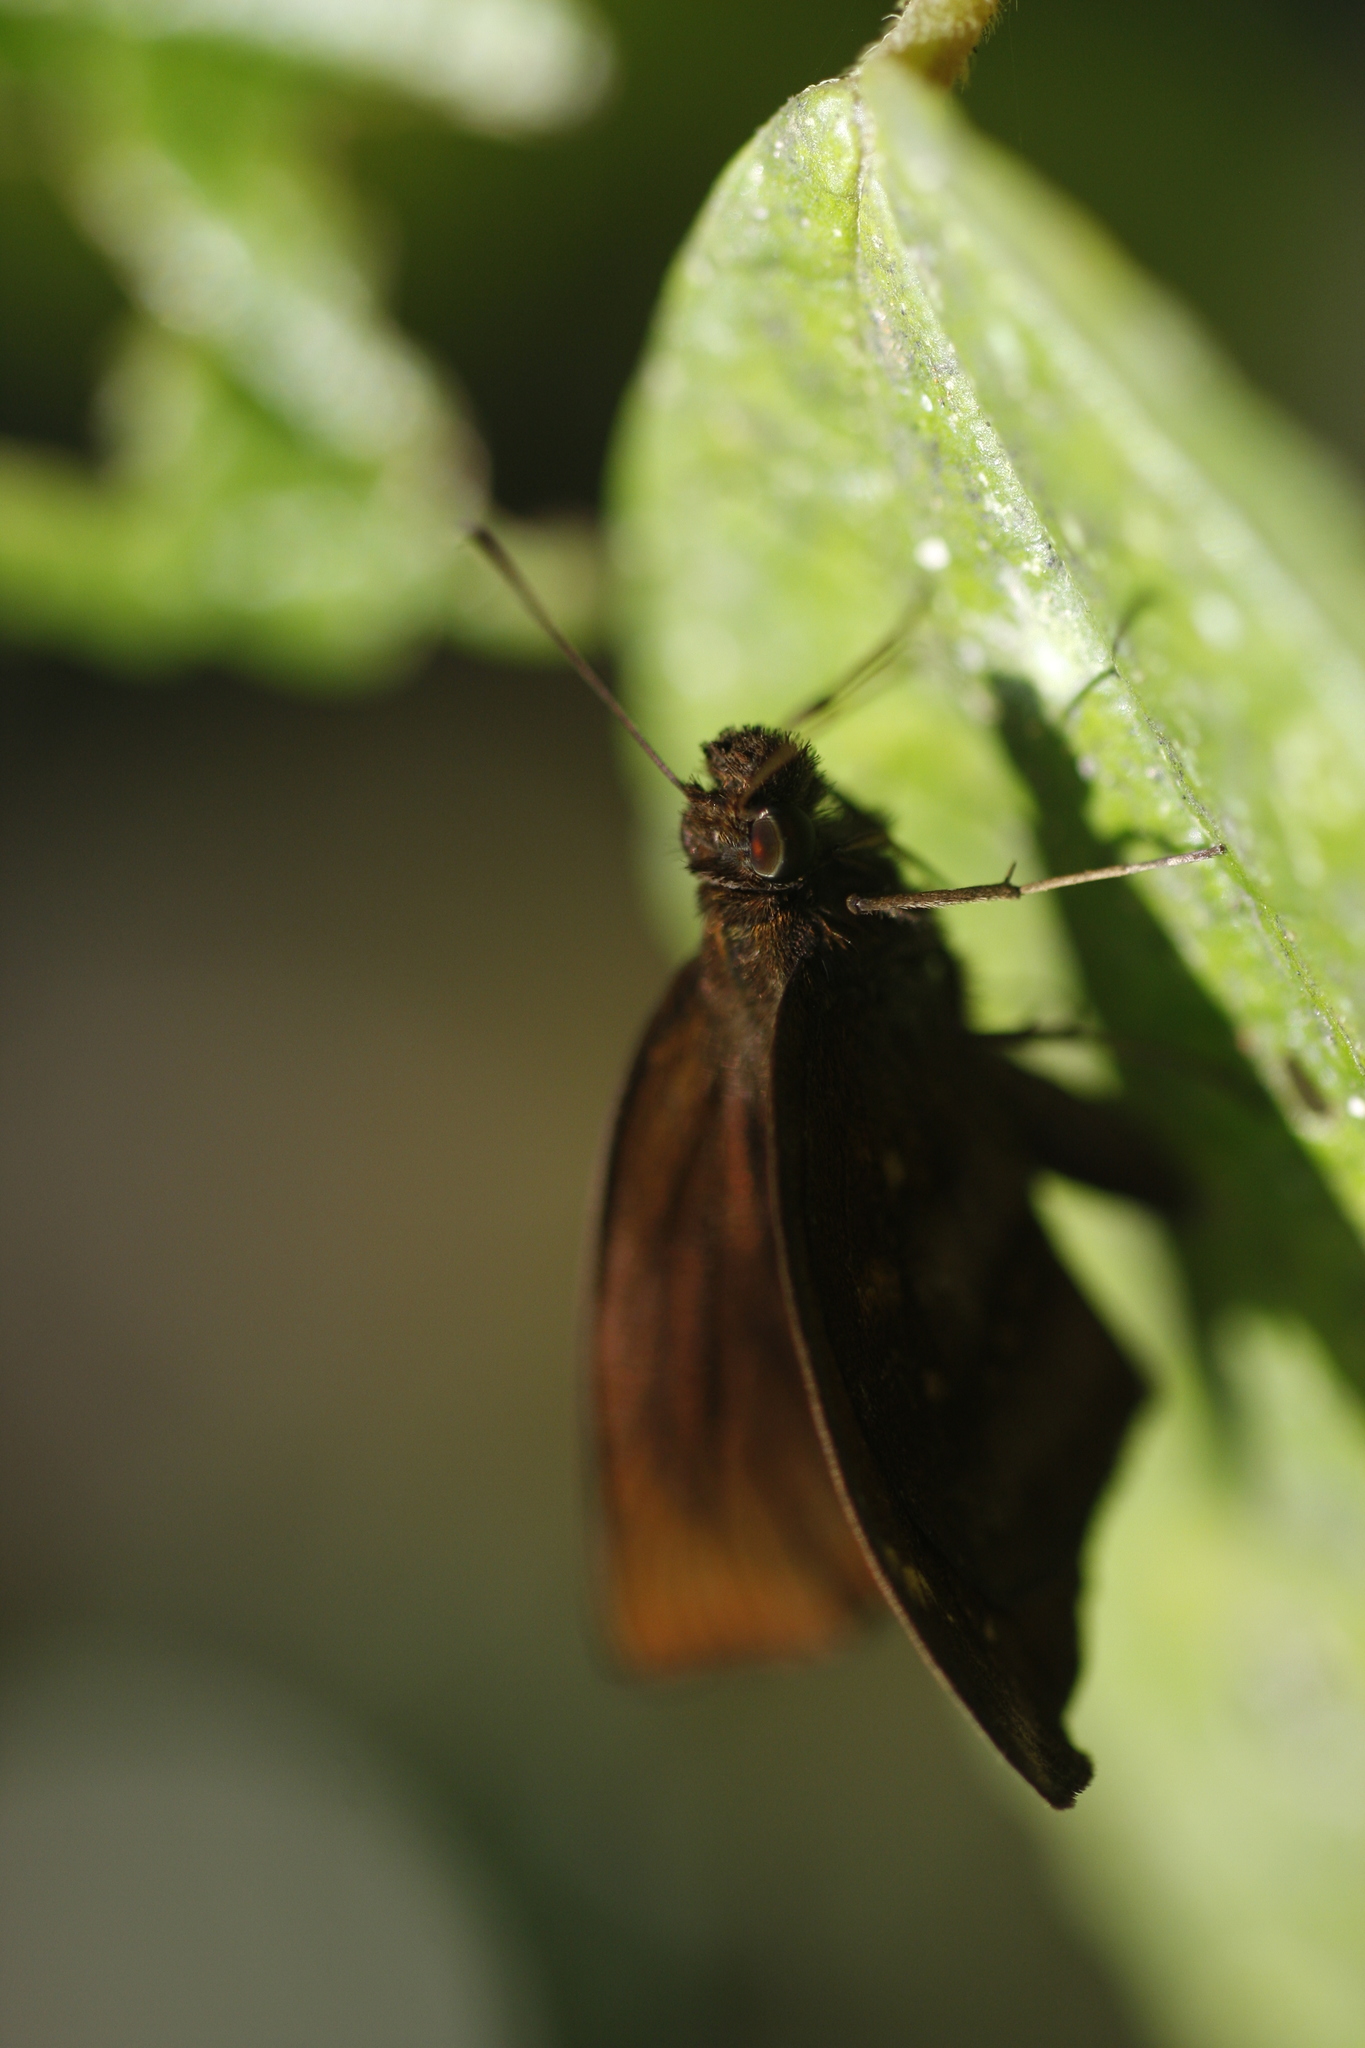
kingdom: Animalia
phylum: Arthropoda
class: Insecta
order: Lepidoptera
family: Hesperiidae
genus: Psolos
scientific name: Psolos fuligo
